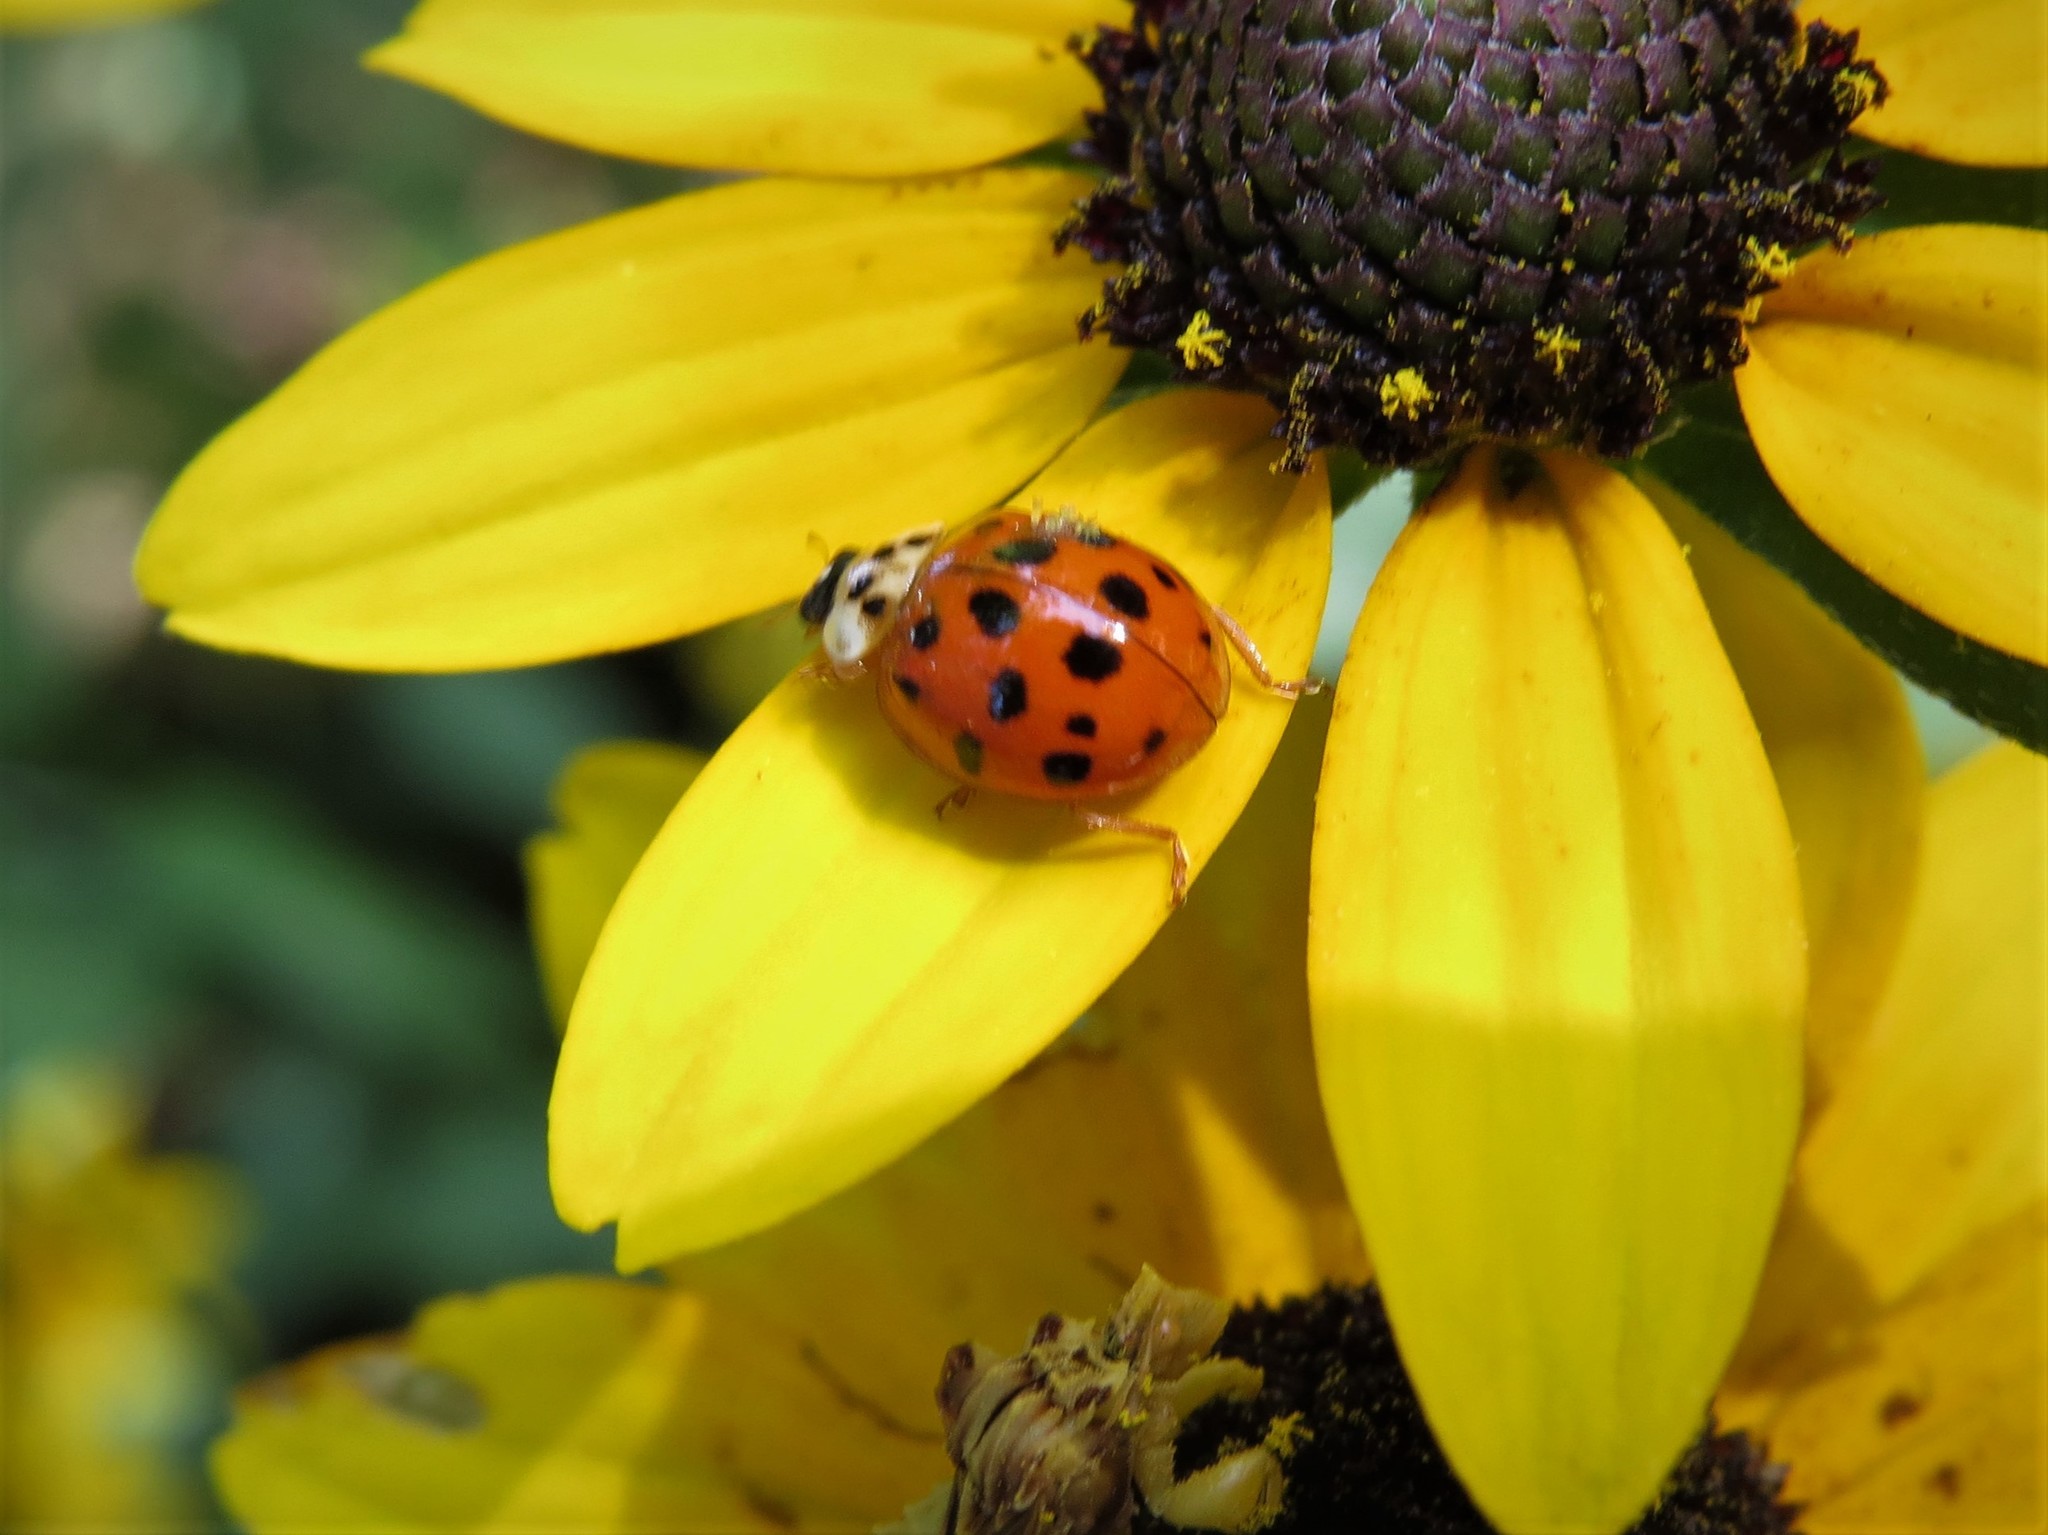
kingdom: Animalia
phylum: Arthropoda
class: Insecta
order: Coleoptera
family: Coccinellidae
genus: Harmonia
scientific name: Harmonia axyridis
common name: Harlequin ladybird
